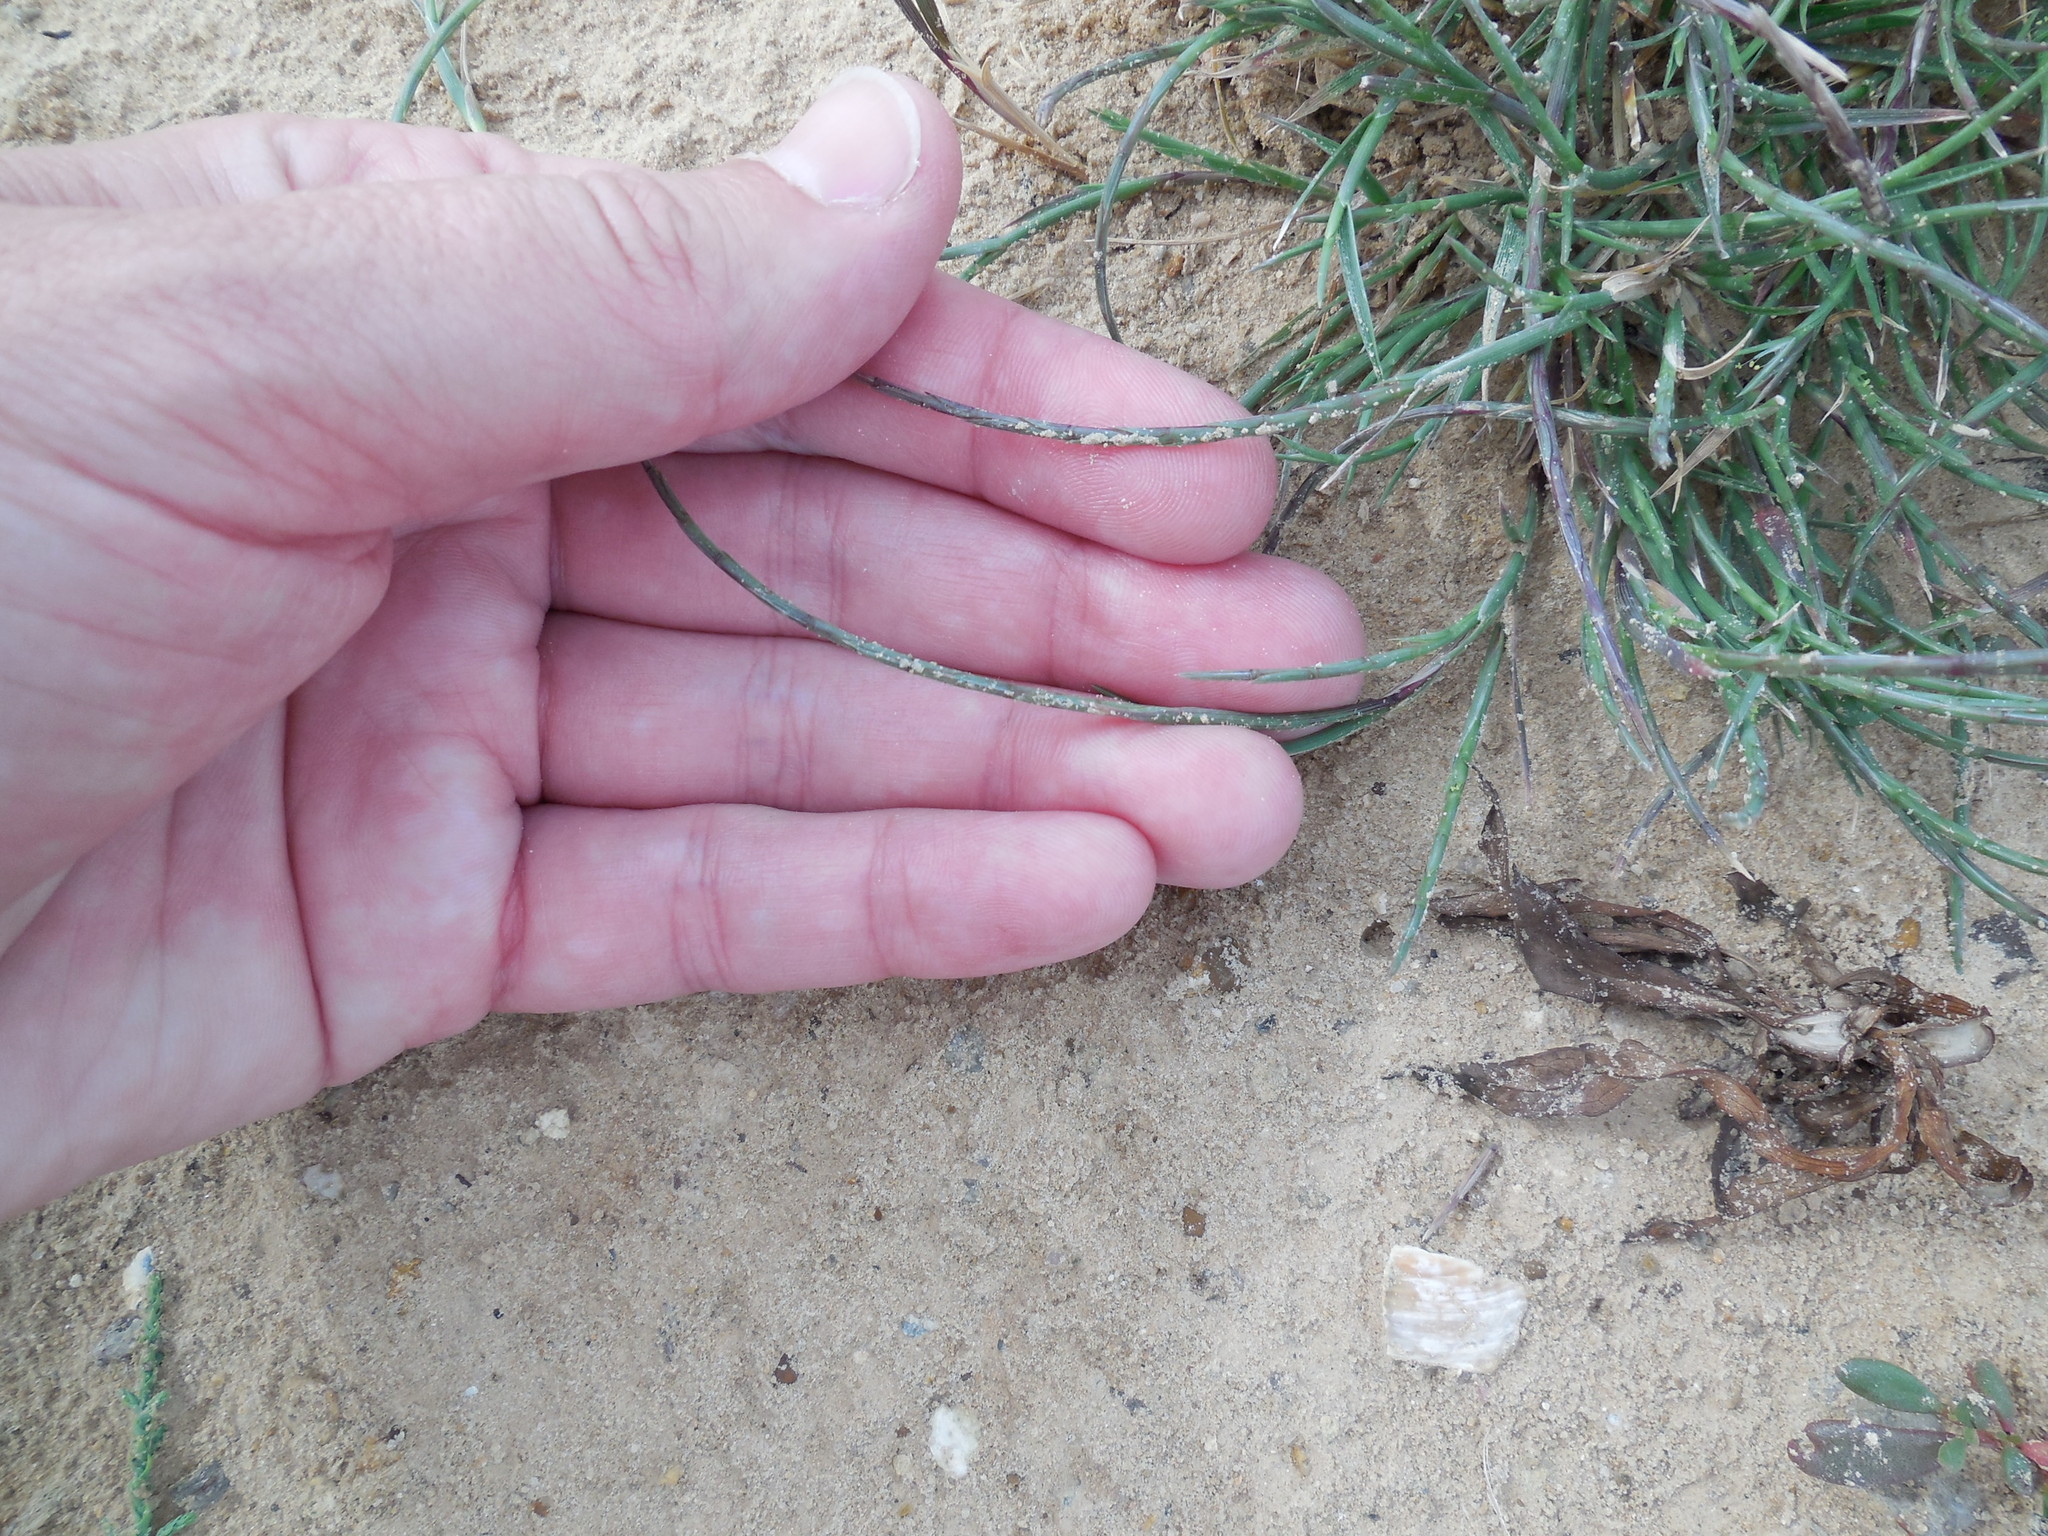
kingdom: Plantae
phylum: Tracheophyta
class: Liliopsida
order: Poales
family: Poaceae
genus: Parapholis
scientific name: Parapholis incurva
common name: Curved sicklegrass
